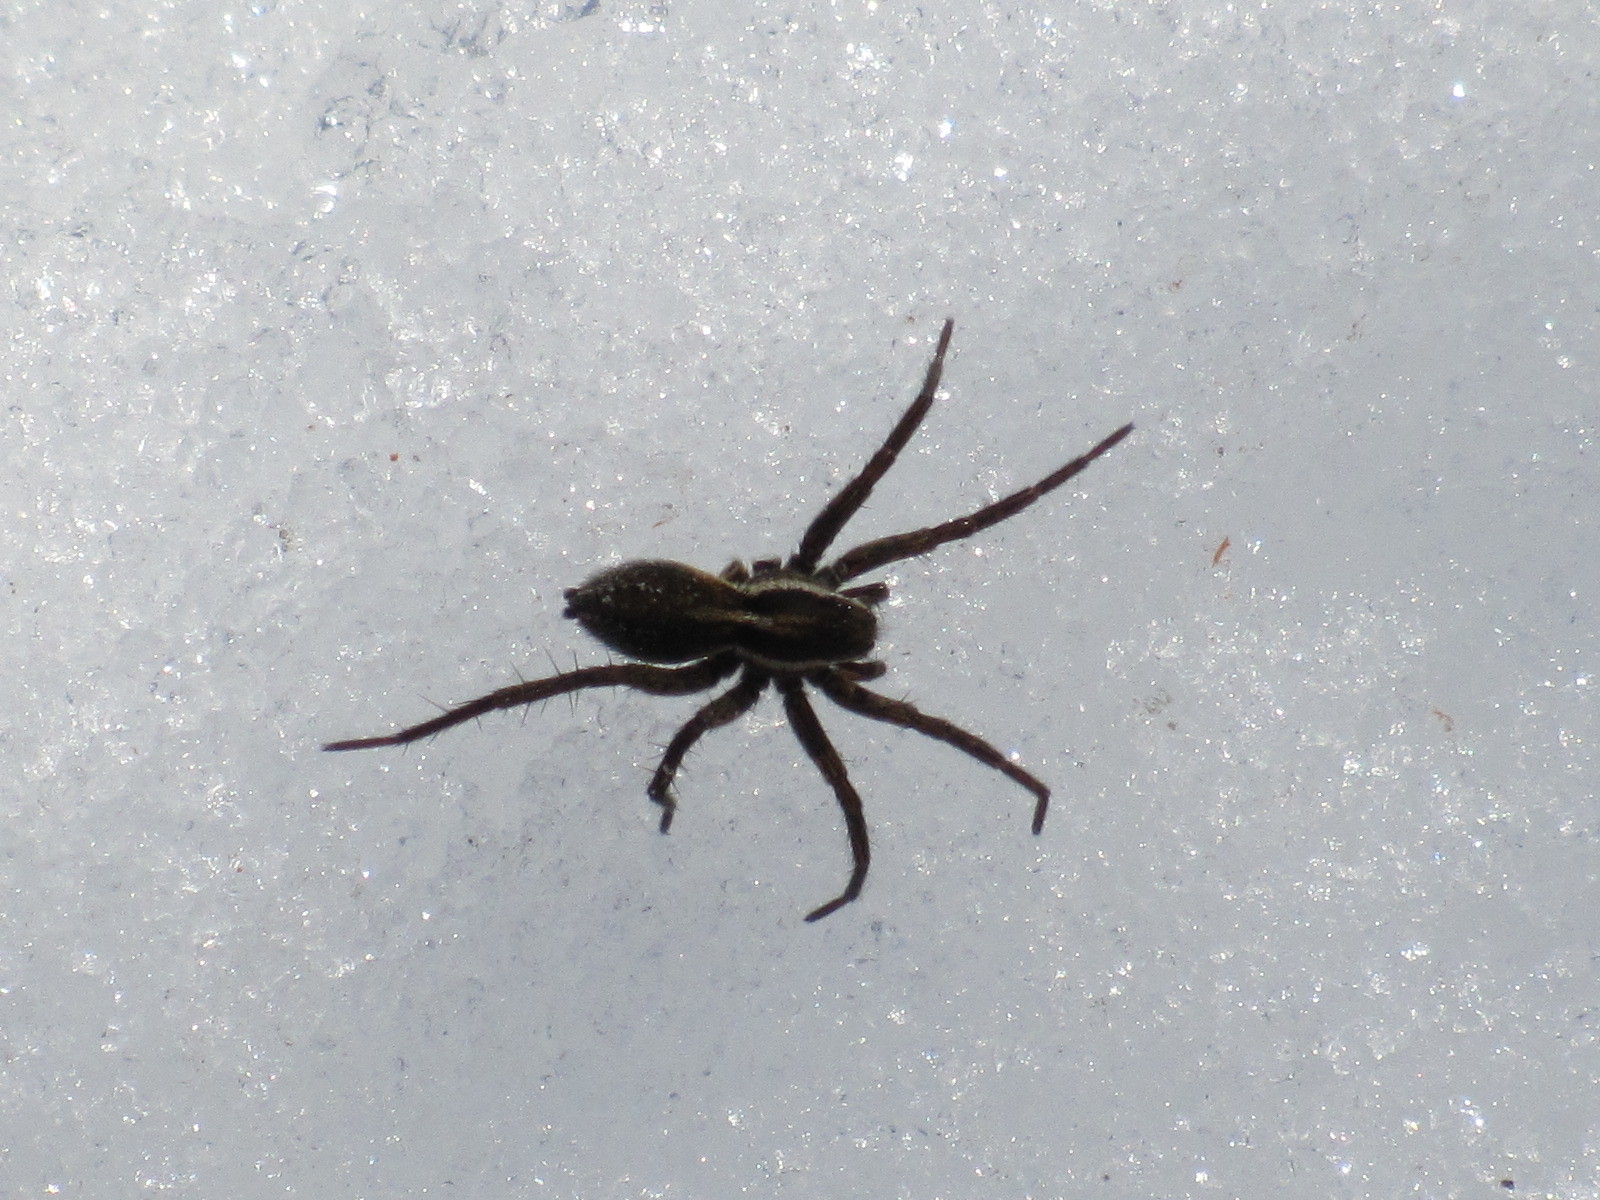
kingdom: Animalia
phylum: Arthropoda
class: Arachnida
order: Araneae
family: Lycosidae
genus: Pardosa
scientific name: Pardosa modica
